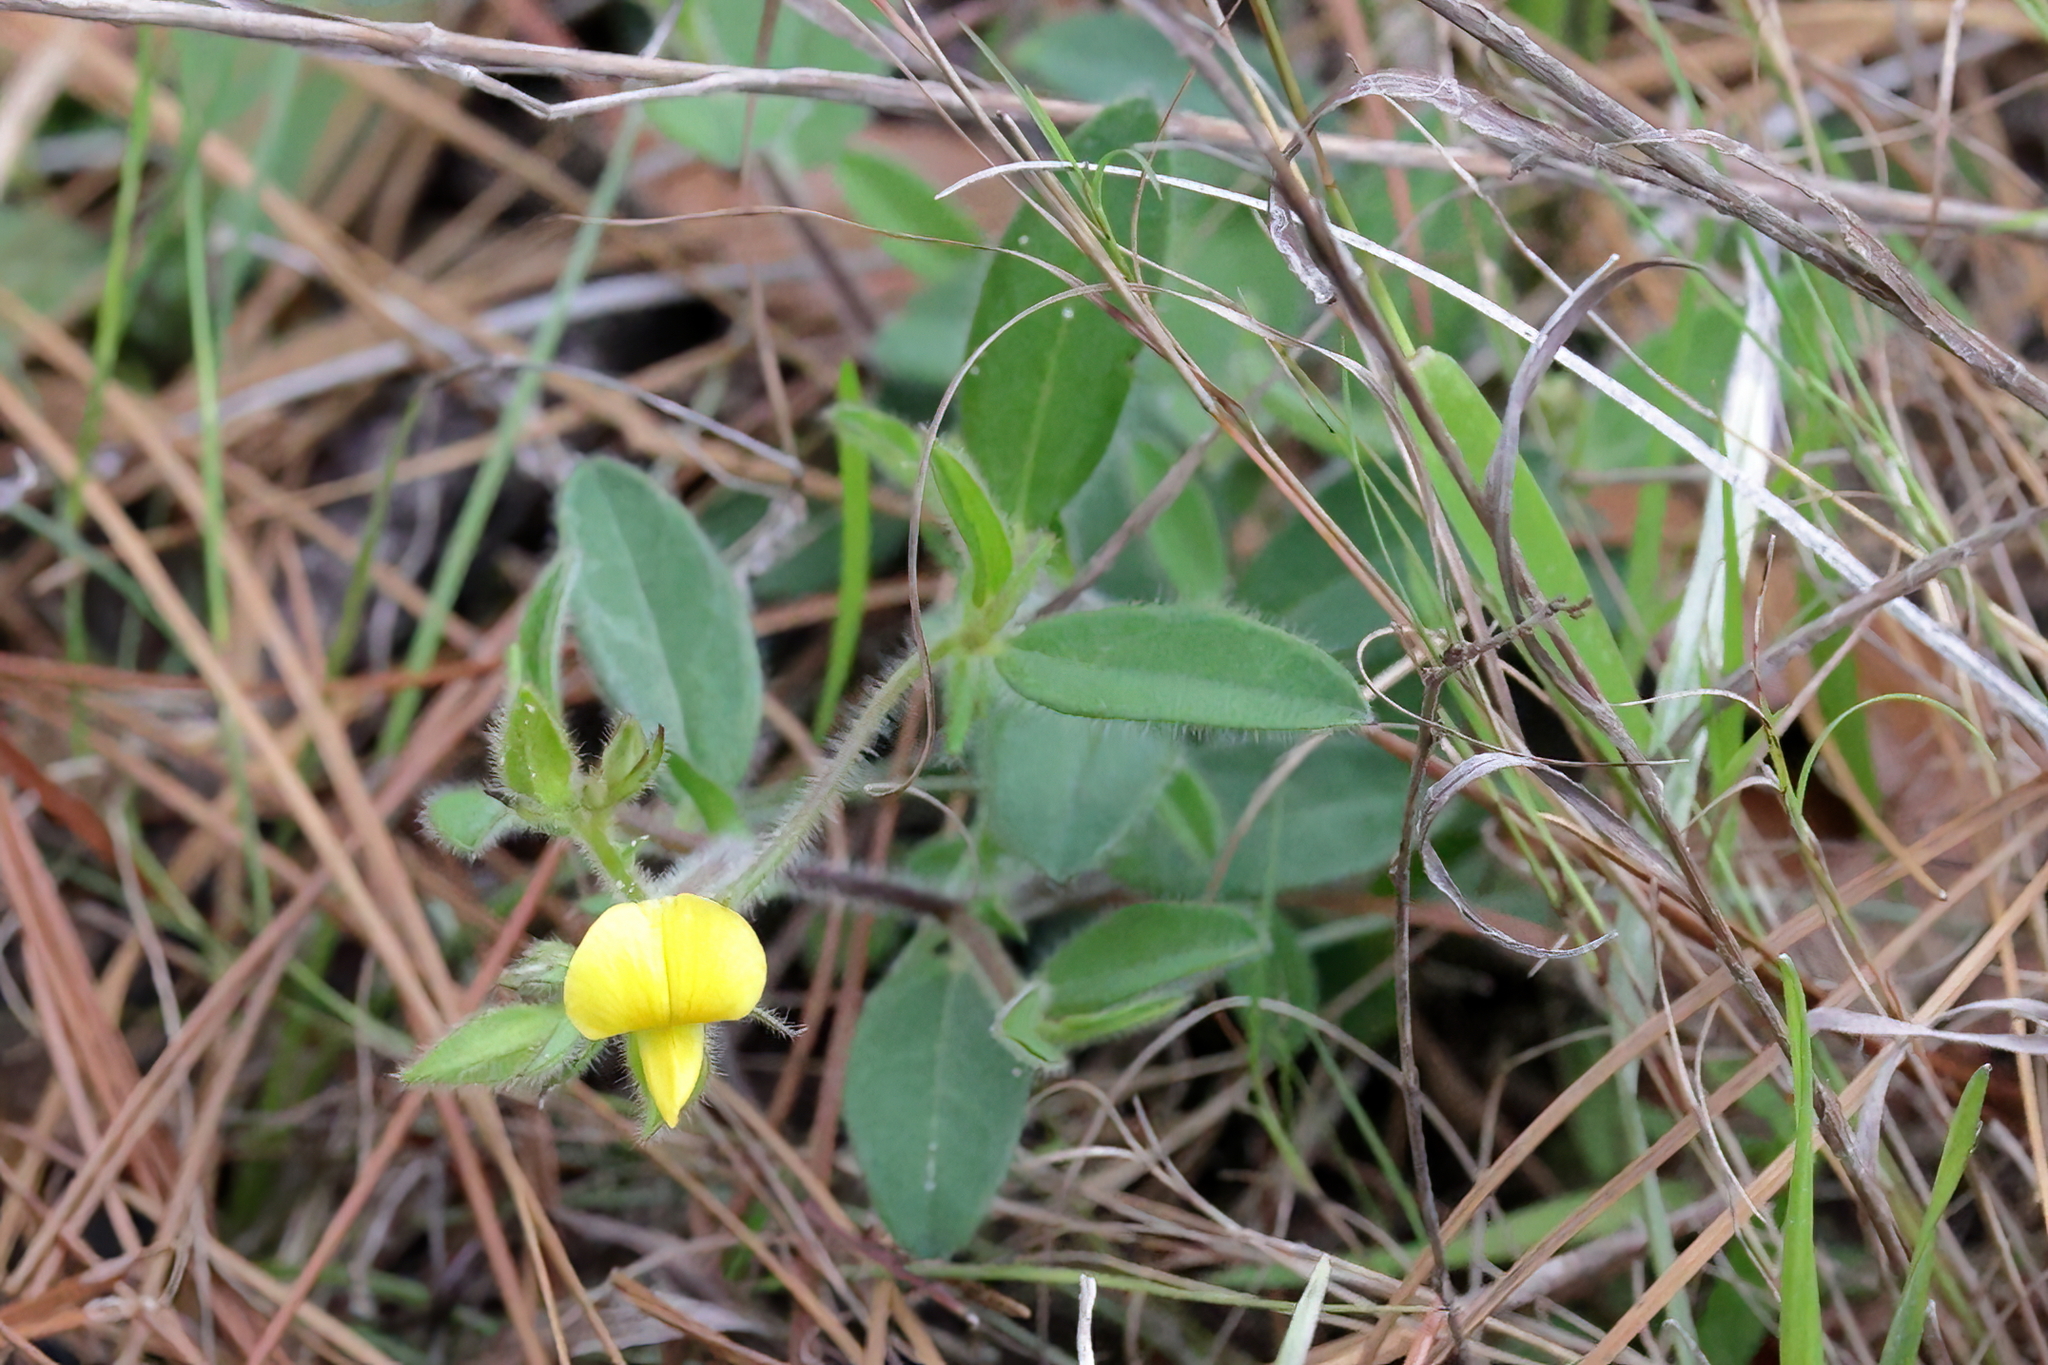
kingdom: Plantae
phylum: Tracheophyta
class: Magnoliopsida
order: Fabales
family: Fabaceae
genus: Crotalaria
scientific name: Crotalaria rotundifolia
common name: Prostrate rattlebox
